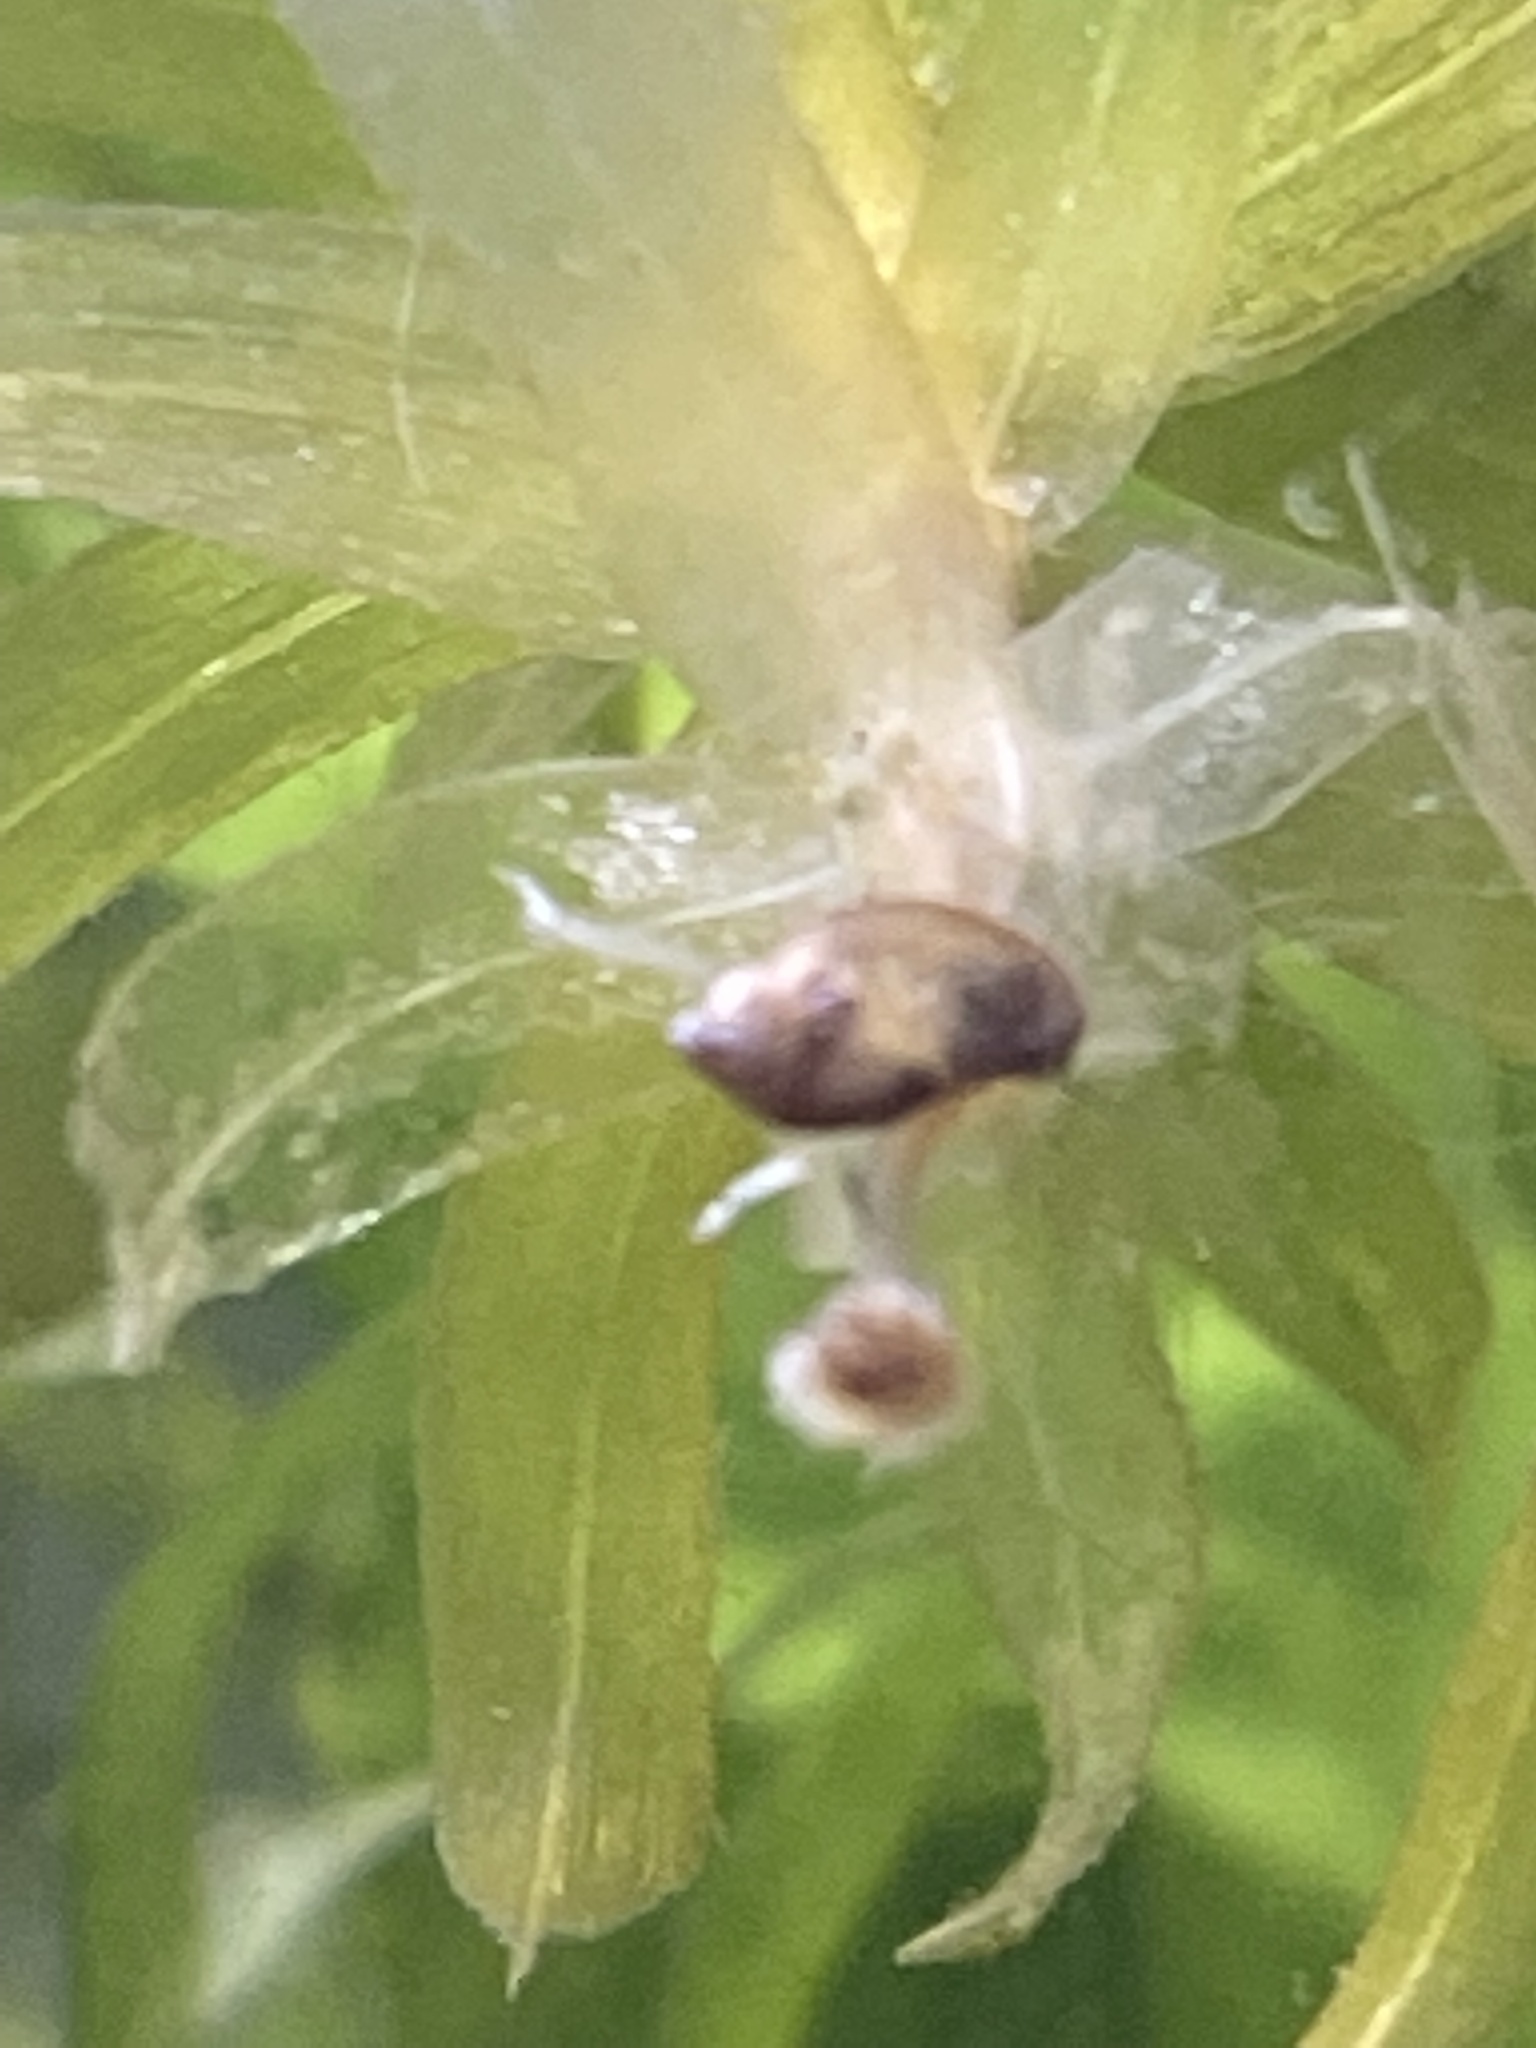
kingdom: Animalia
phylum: Mollusca
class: Gastropoda
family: Physidae
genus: Physella
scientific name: Physella acuta
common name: European physa
